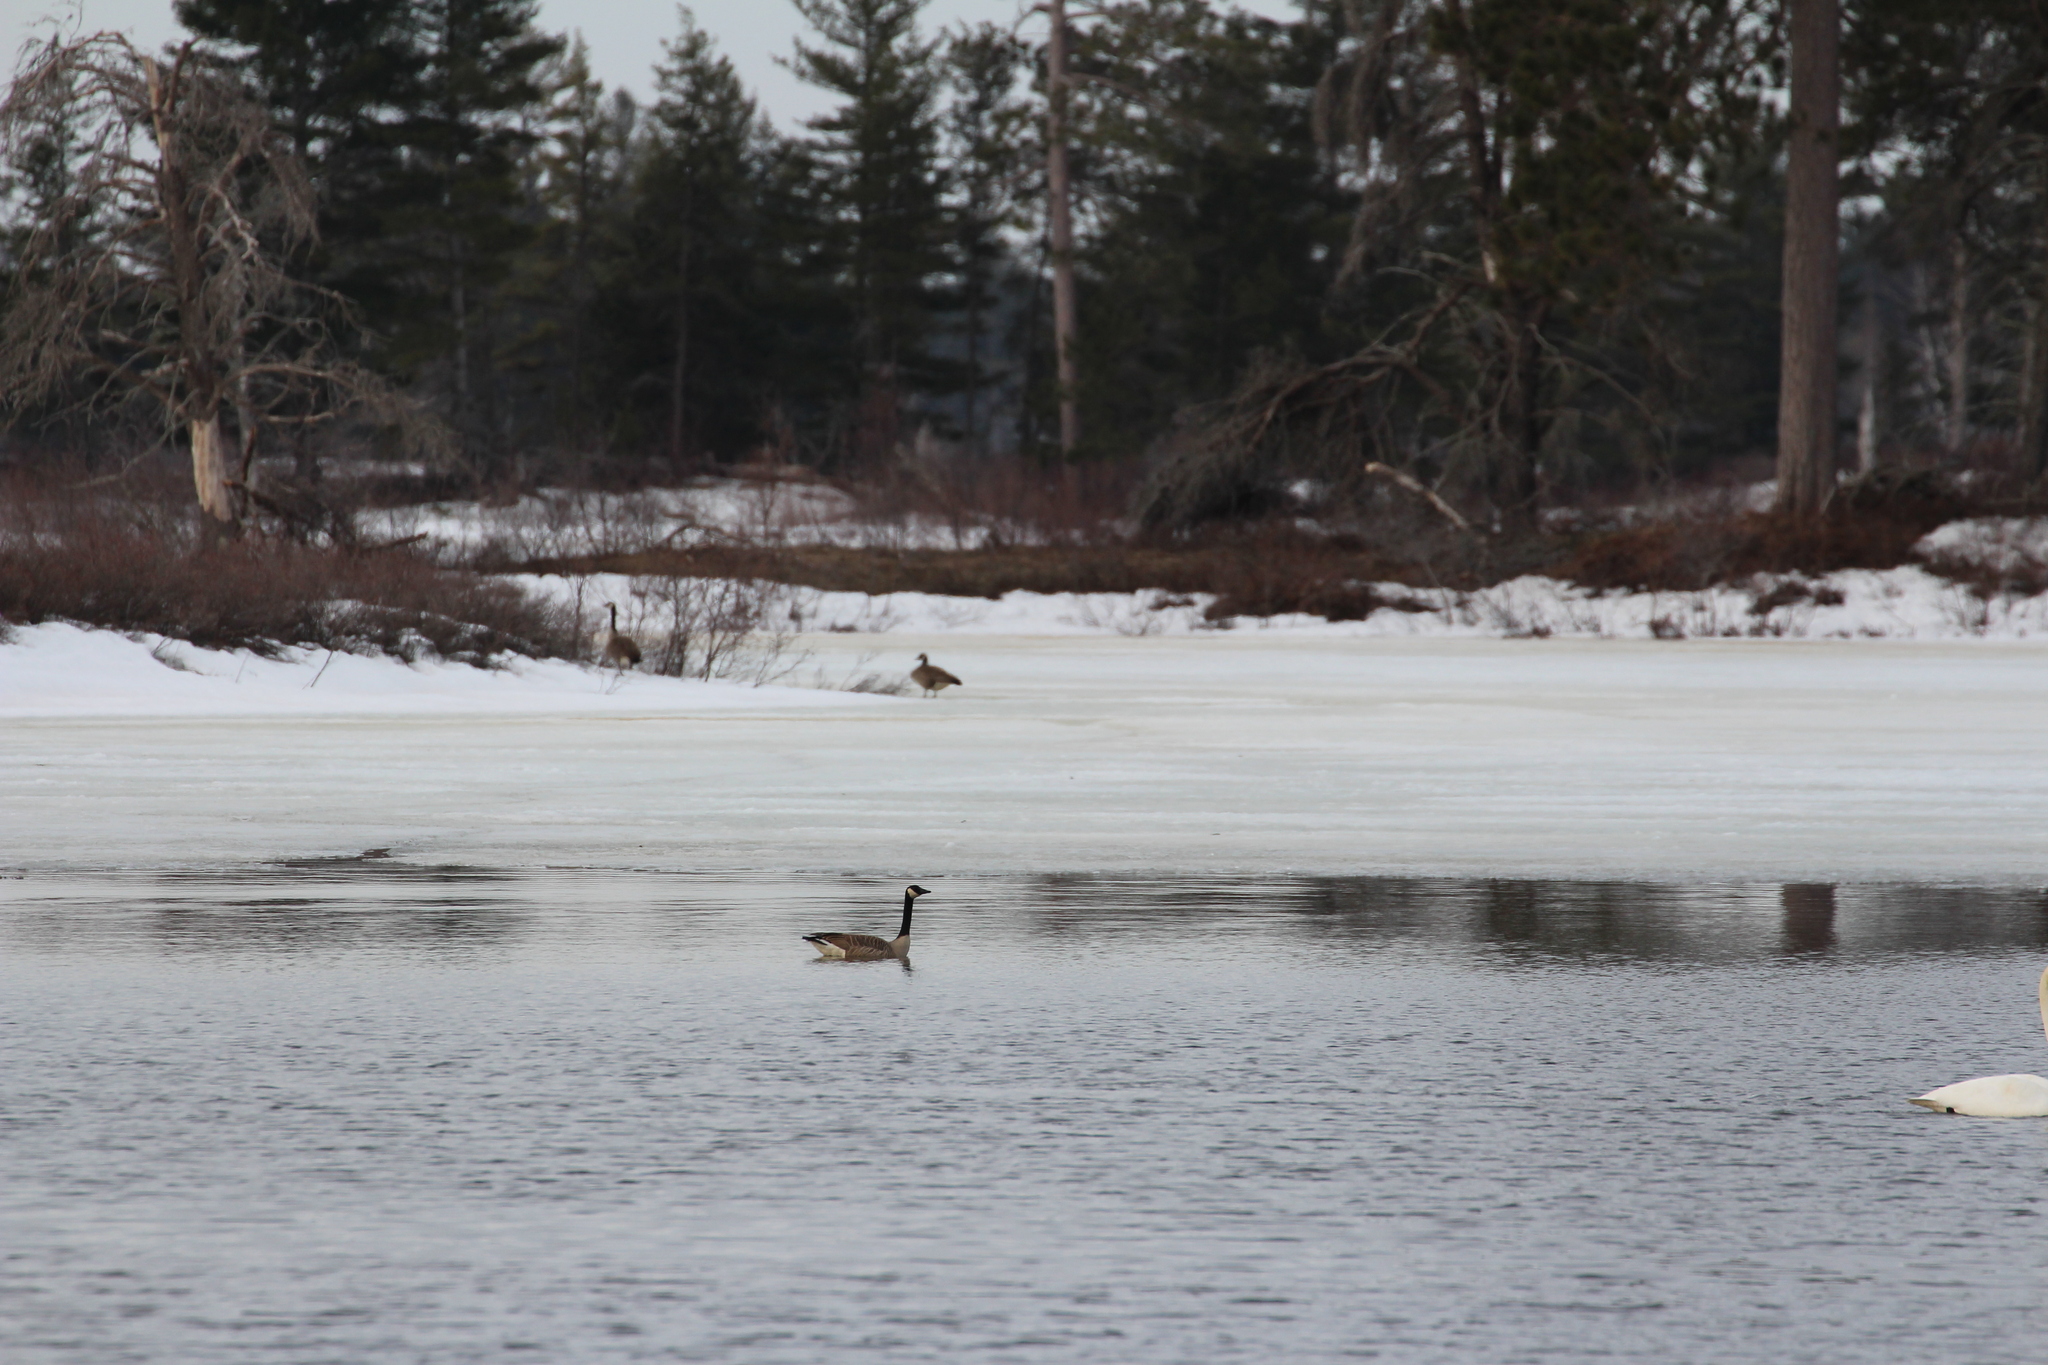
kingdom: Animalia
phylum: Chordata
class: Aves
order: Anseriformes
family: Anatidae
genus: Branta
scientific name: Branta canadensis
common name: Canada goose
